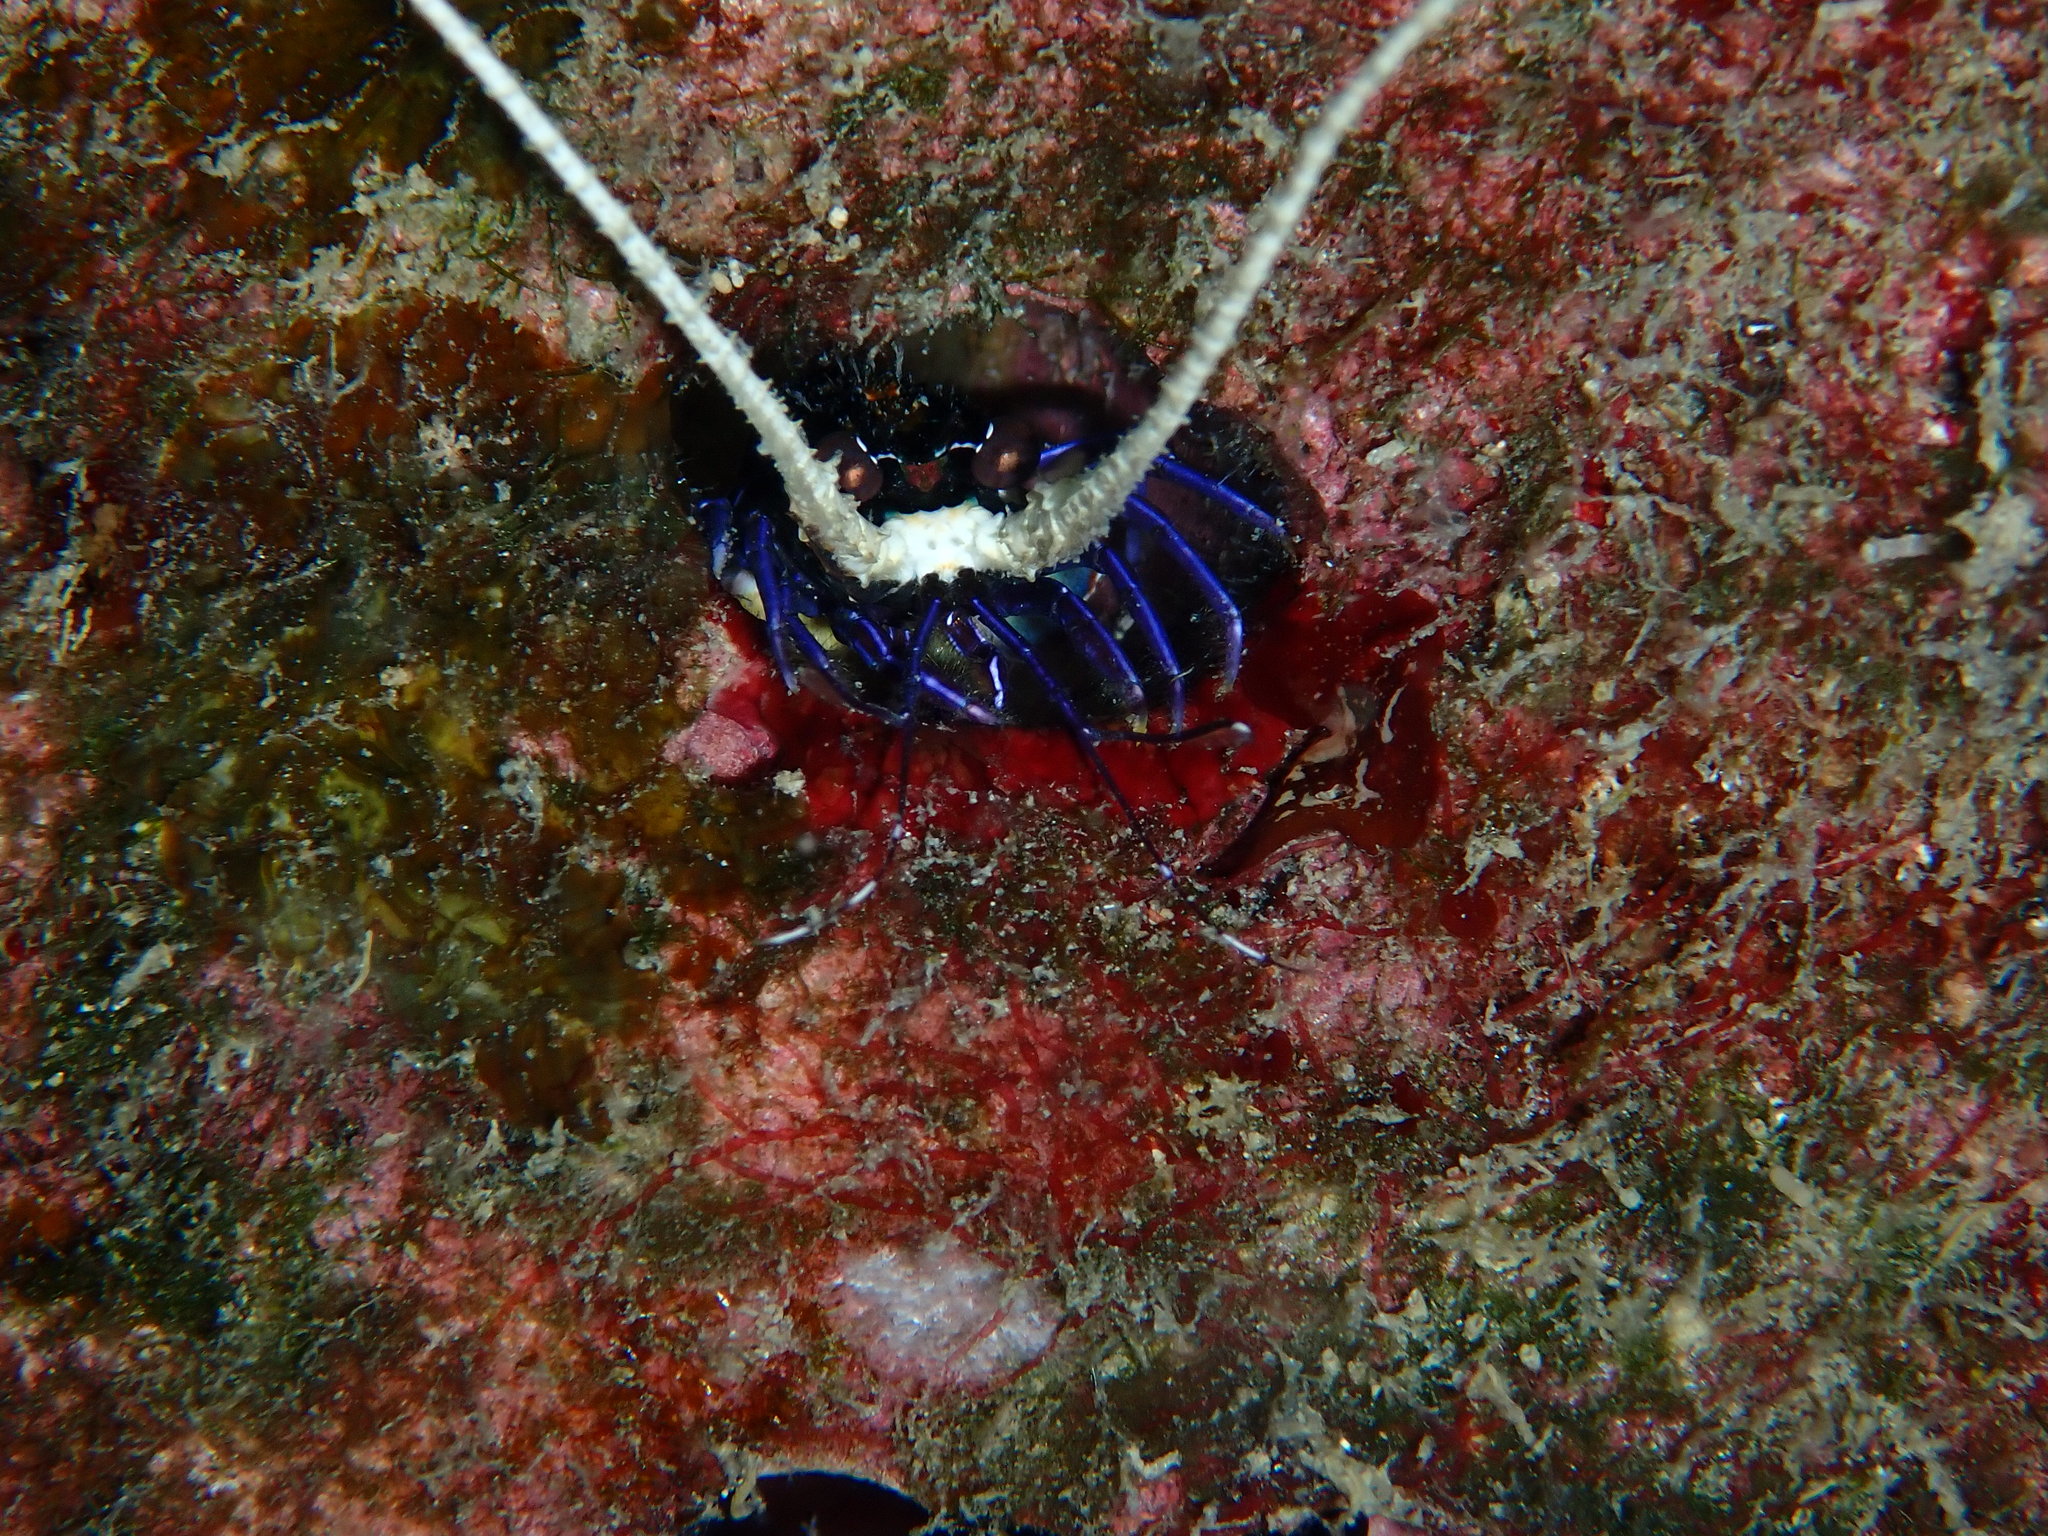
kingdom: Animalia
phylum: Arthropoda
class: Malacostraca
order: Decapoda
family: Palinuridae
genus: Panulirus
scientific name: Panulirus versicolor
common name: Painted spiny lobster
